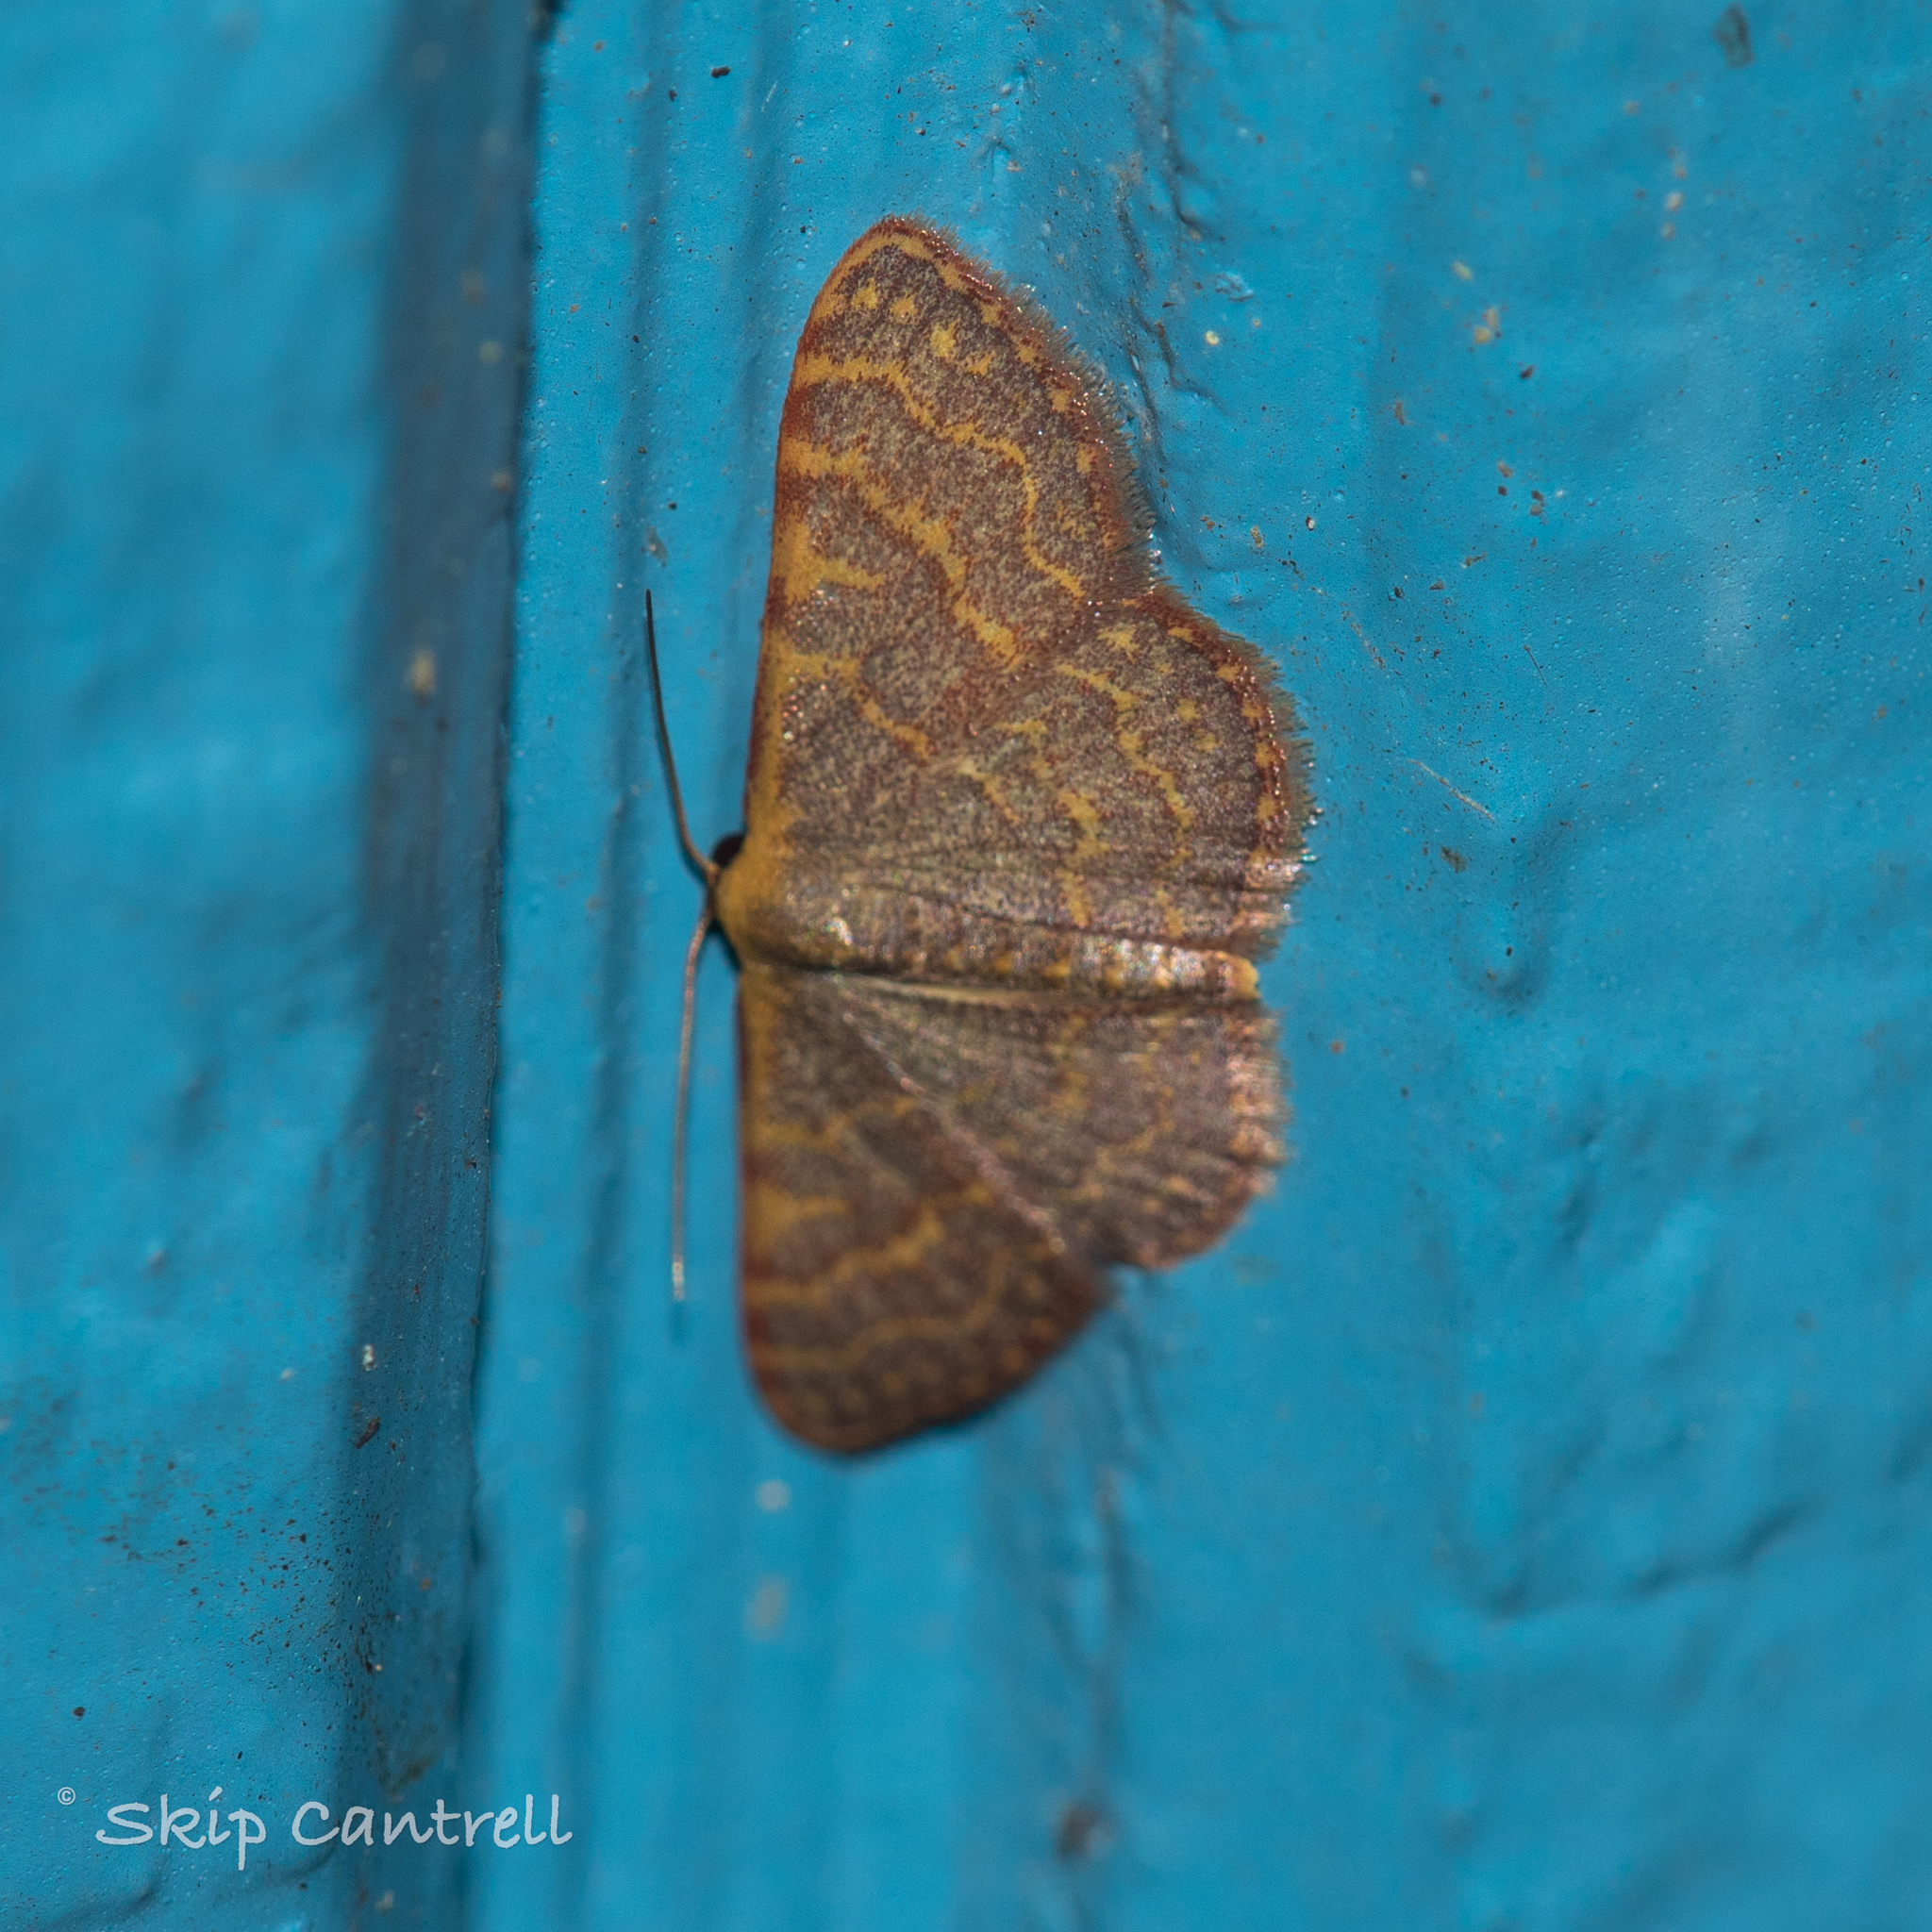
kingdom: Animalia
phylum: Arthropoda
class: Insecta
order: Lepidoptera
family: Geometridae
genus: Leptostales
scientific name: Leptostales pannaria
